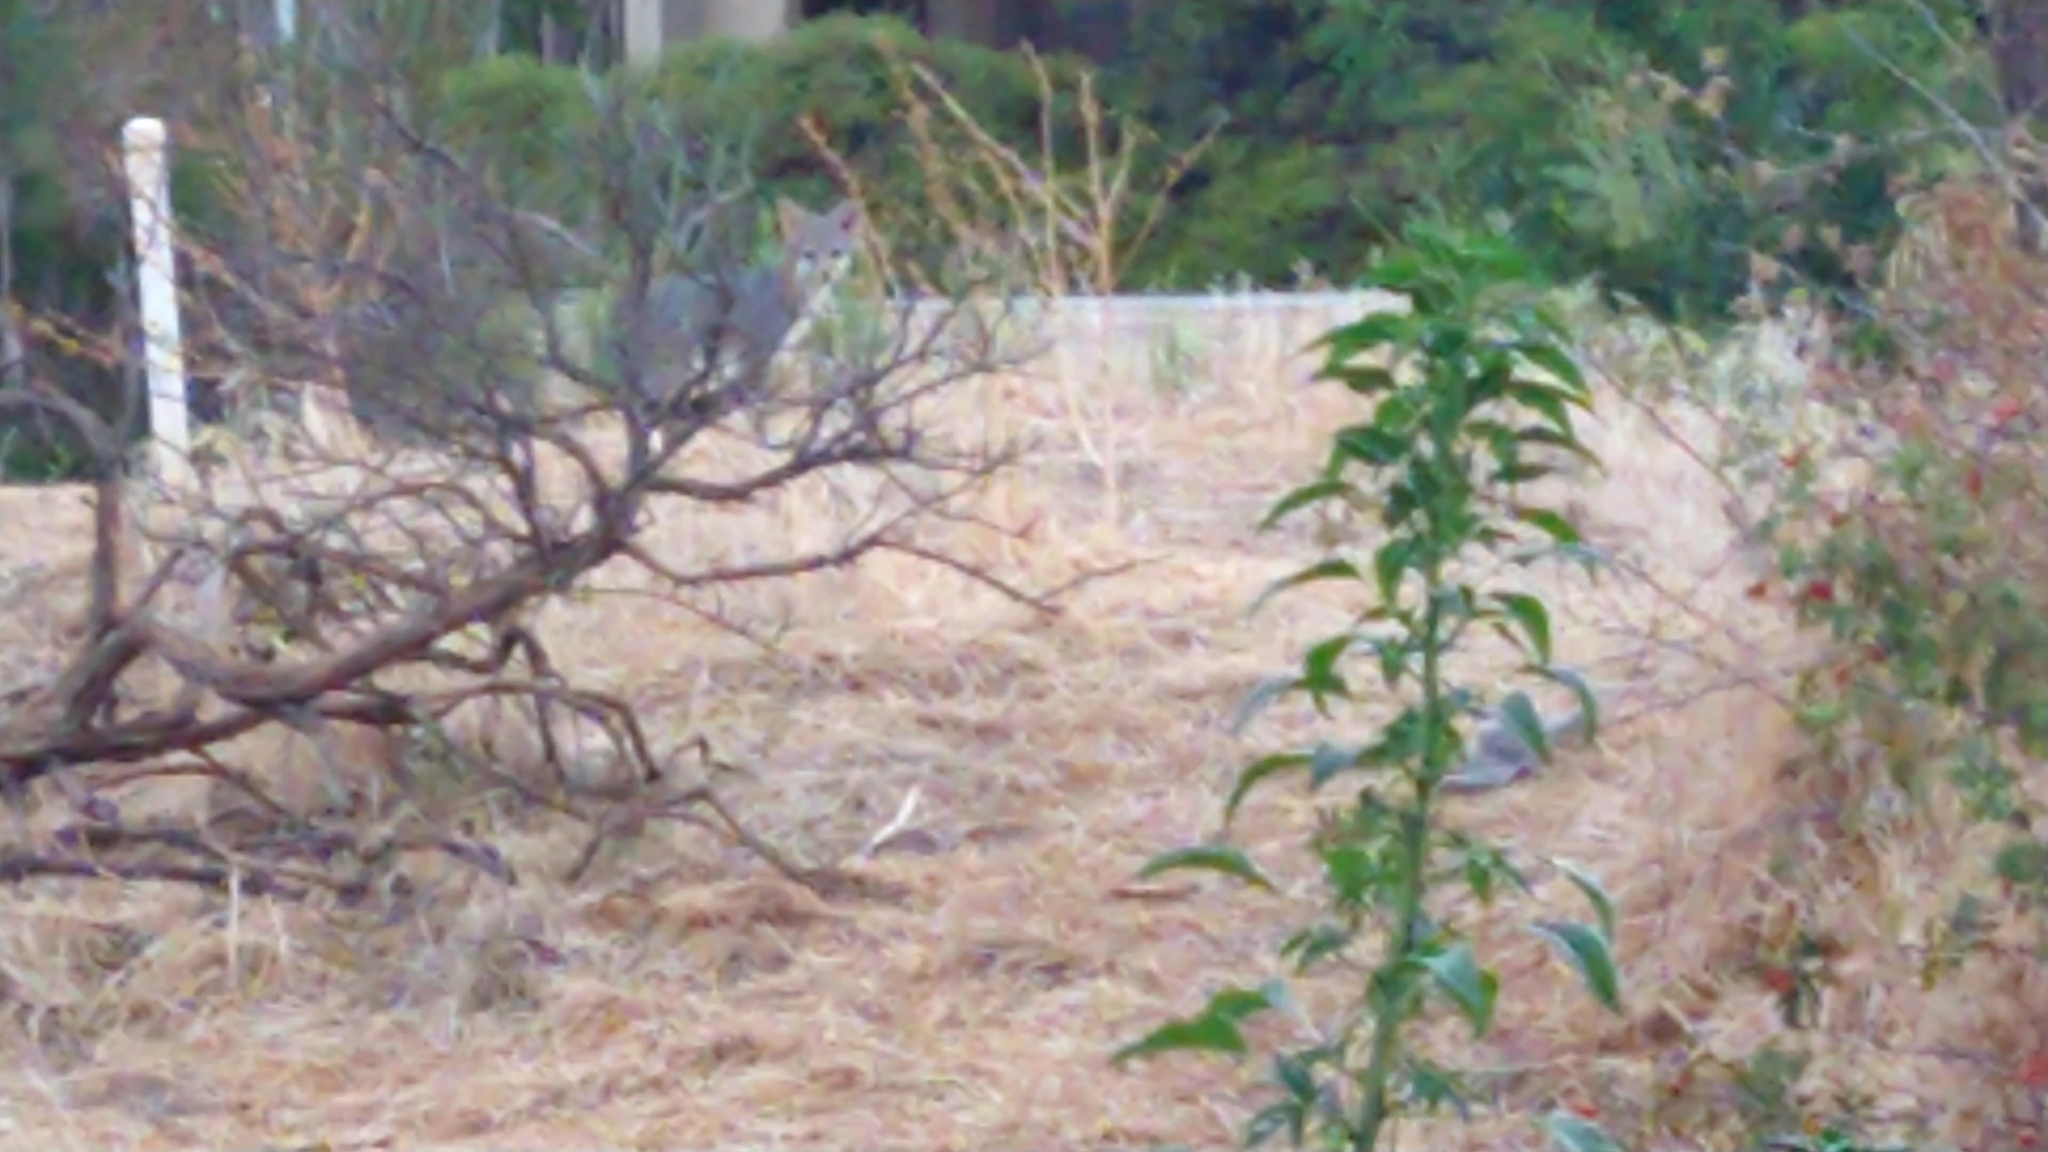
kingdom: Animalia
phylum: Chordata
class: Mammalia
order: Carnivora
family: Canidae
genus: Urocyon
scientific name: Urocyon cinereoargenteus
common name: Gray fox
